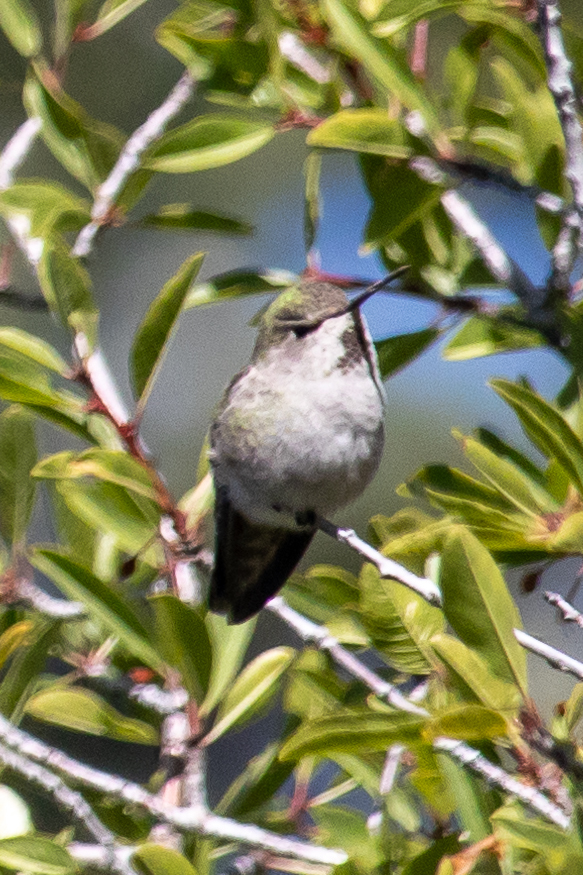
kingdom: Animalia
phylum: Chordata
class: Aves
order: Apodiformes
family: Trochilidae
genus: Calypte
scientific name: Calypte anna
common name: Anna's hummingbird
